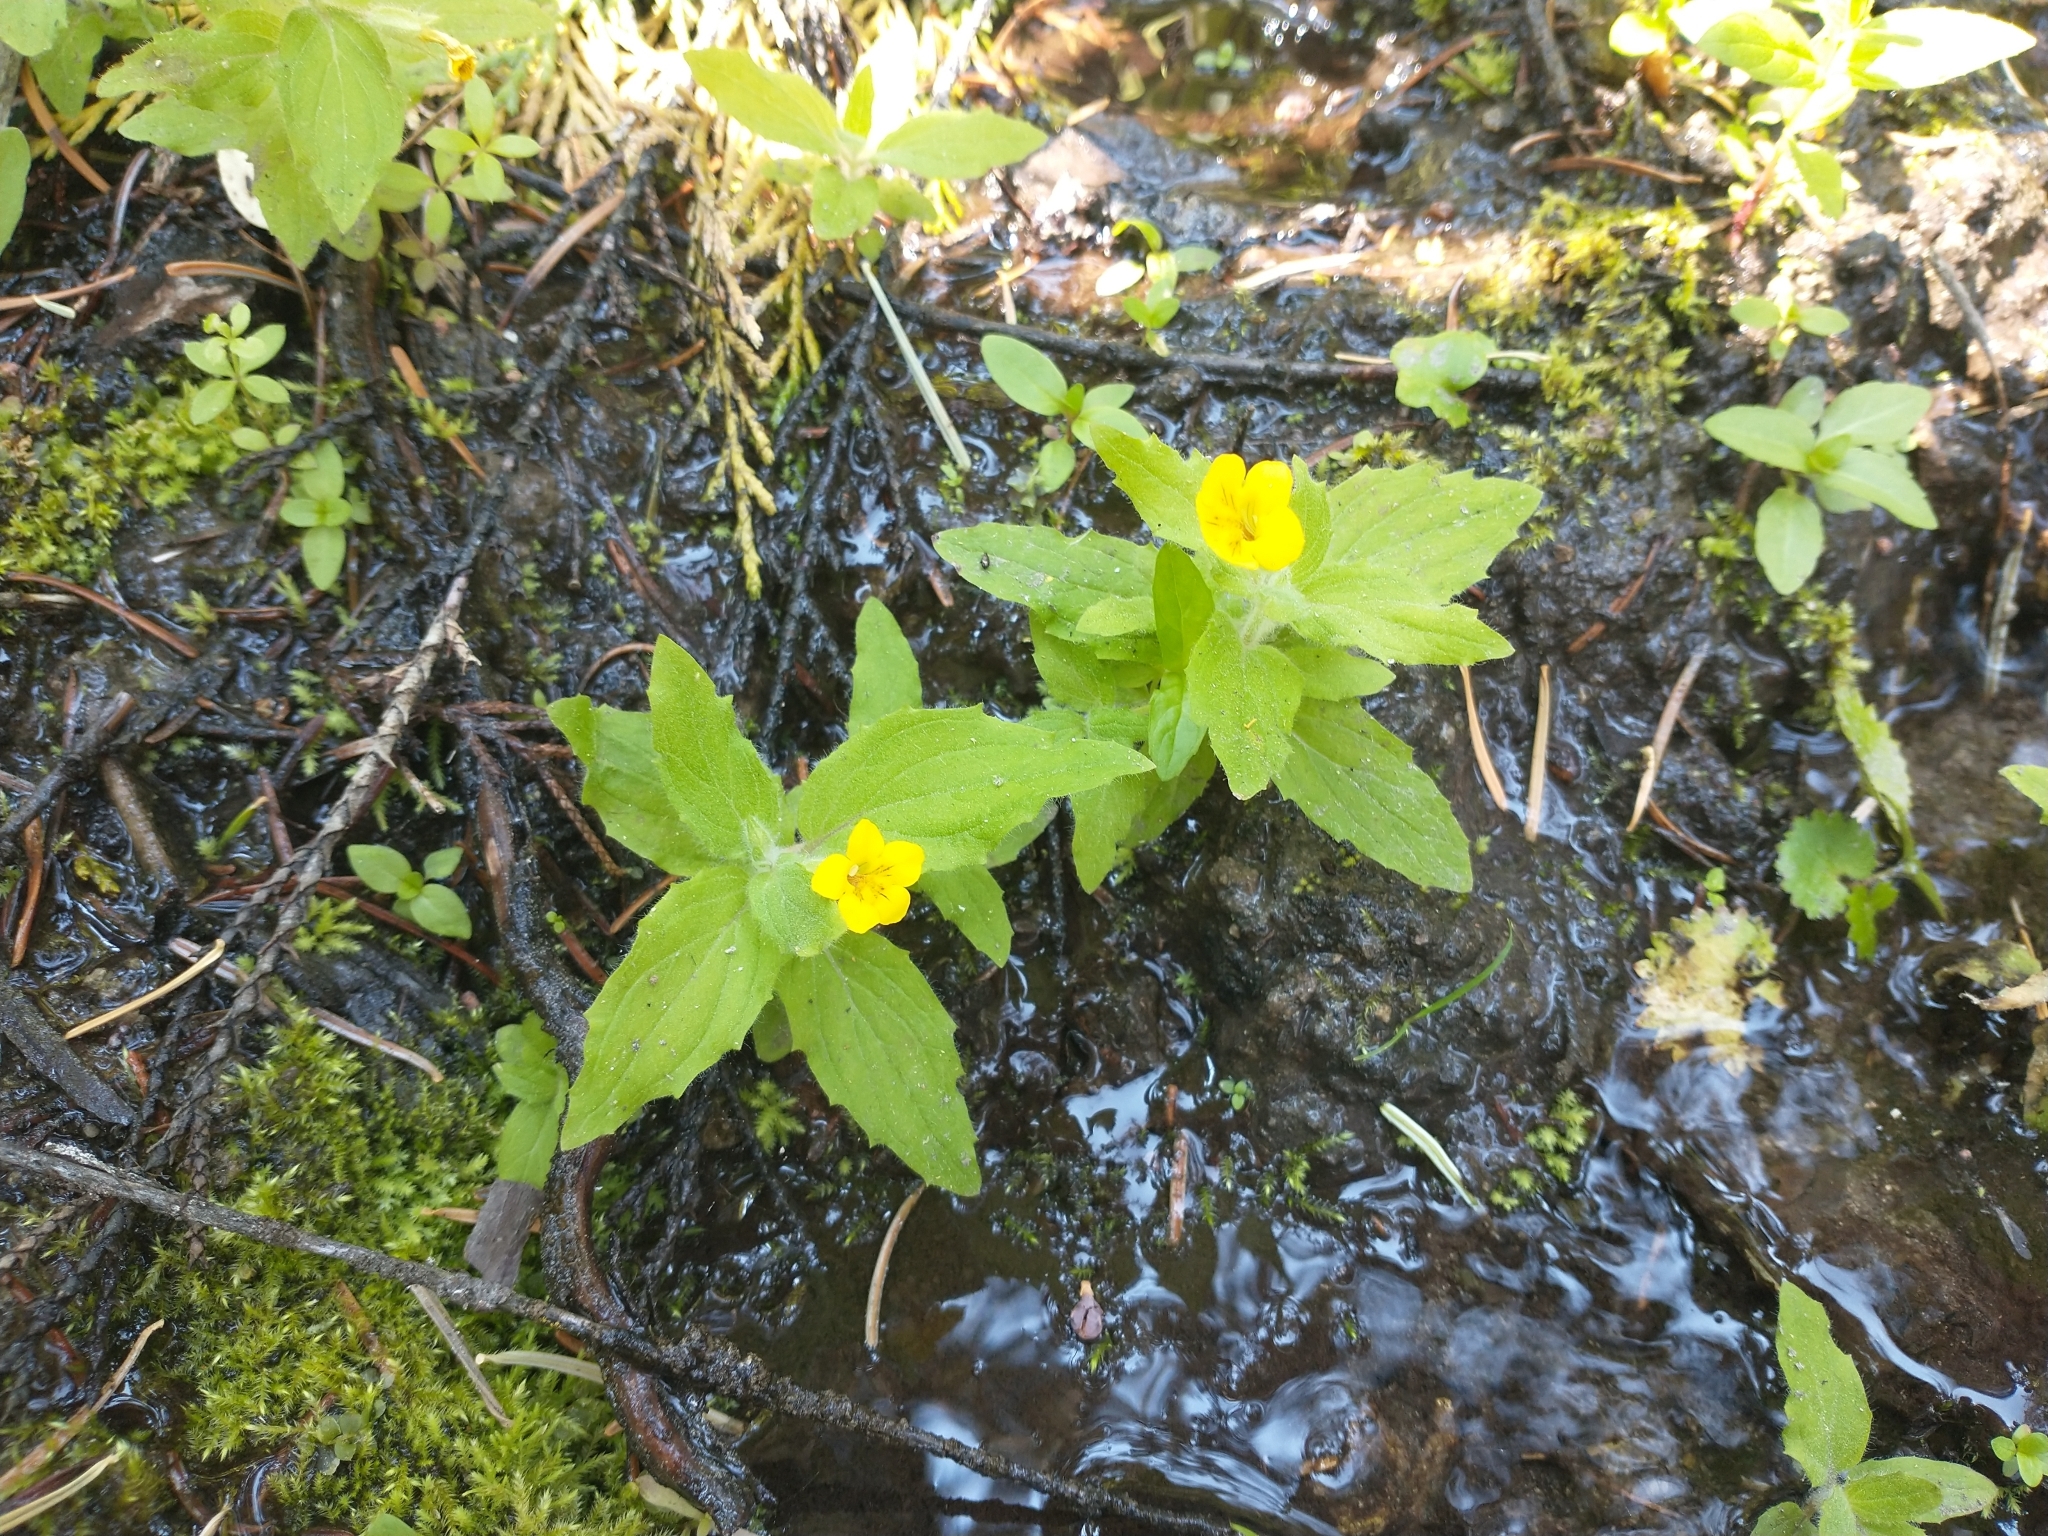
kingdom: Plantae
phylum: Tracheophyta
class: Magnoliopsida
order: Lamiales
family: Phrymaceae
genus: Erythranthe
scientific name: Erythranthe moschata
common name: Muskflower
